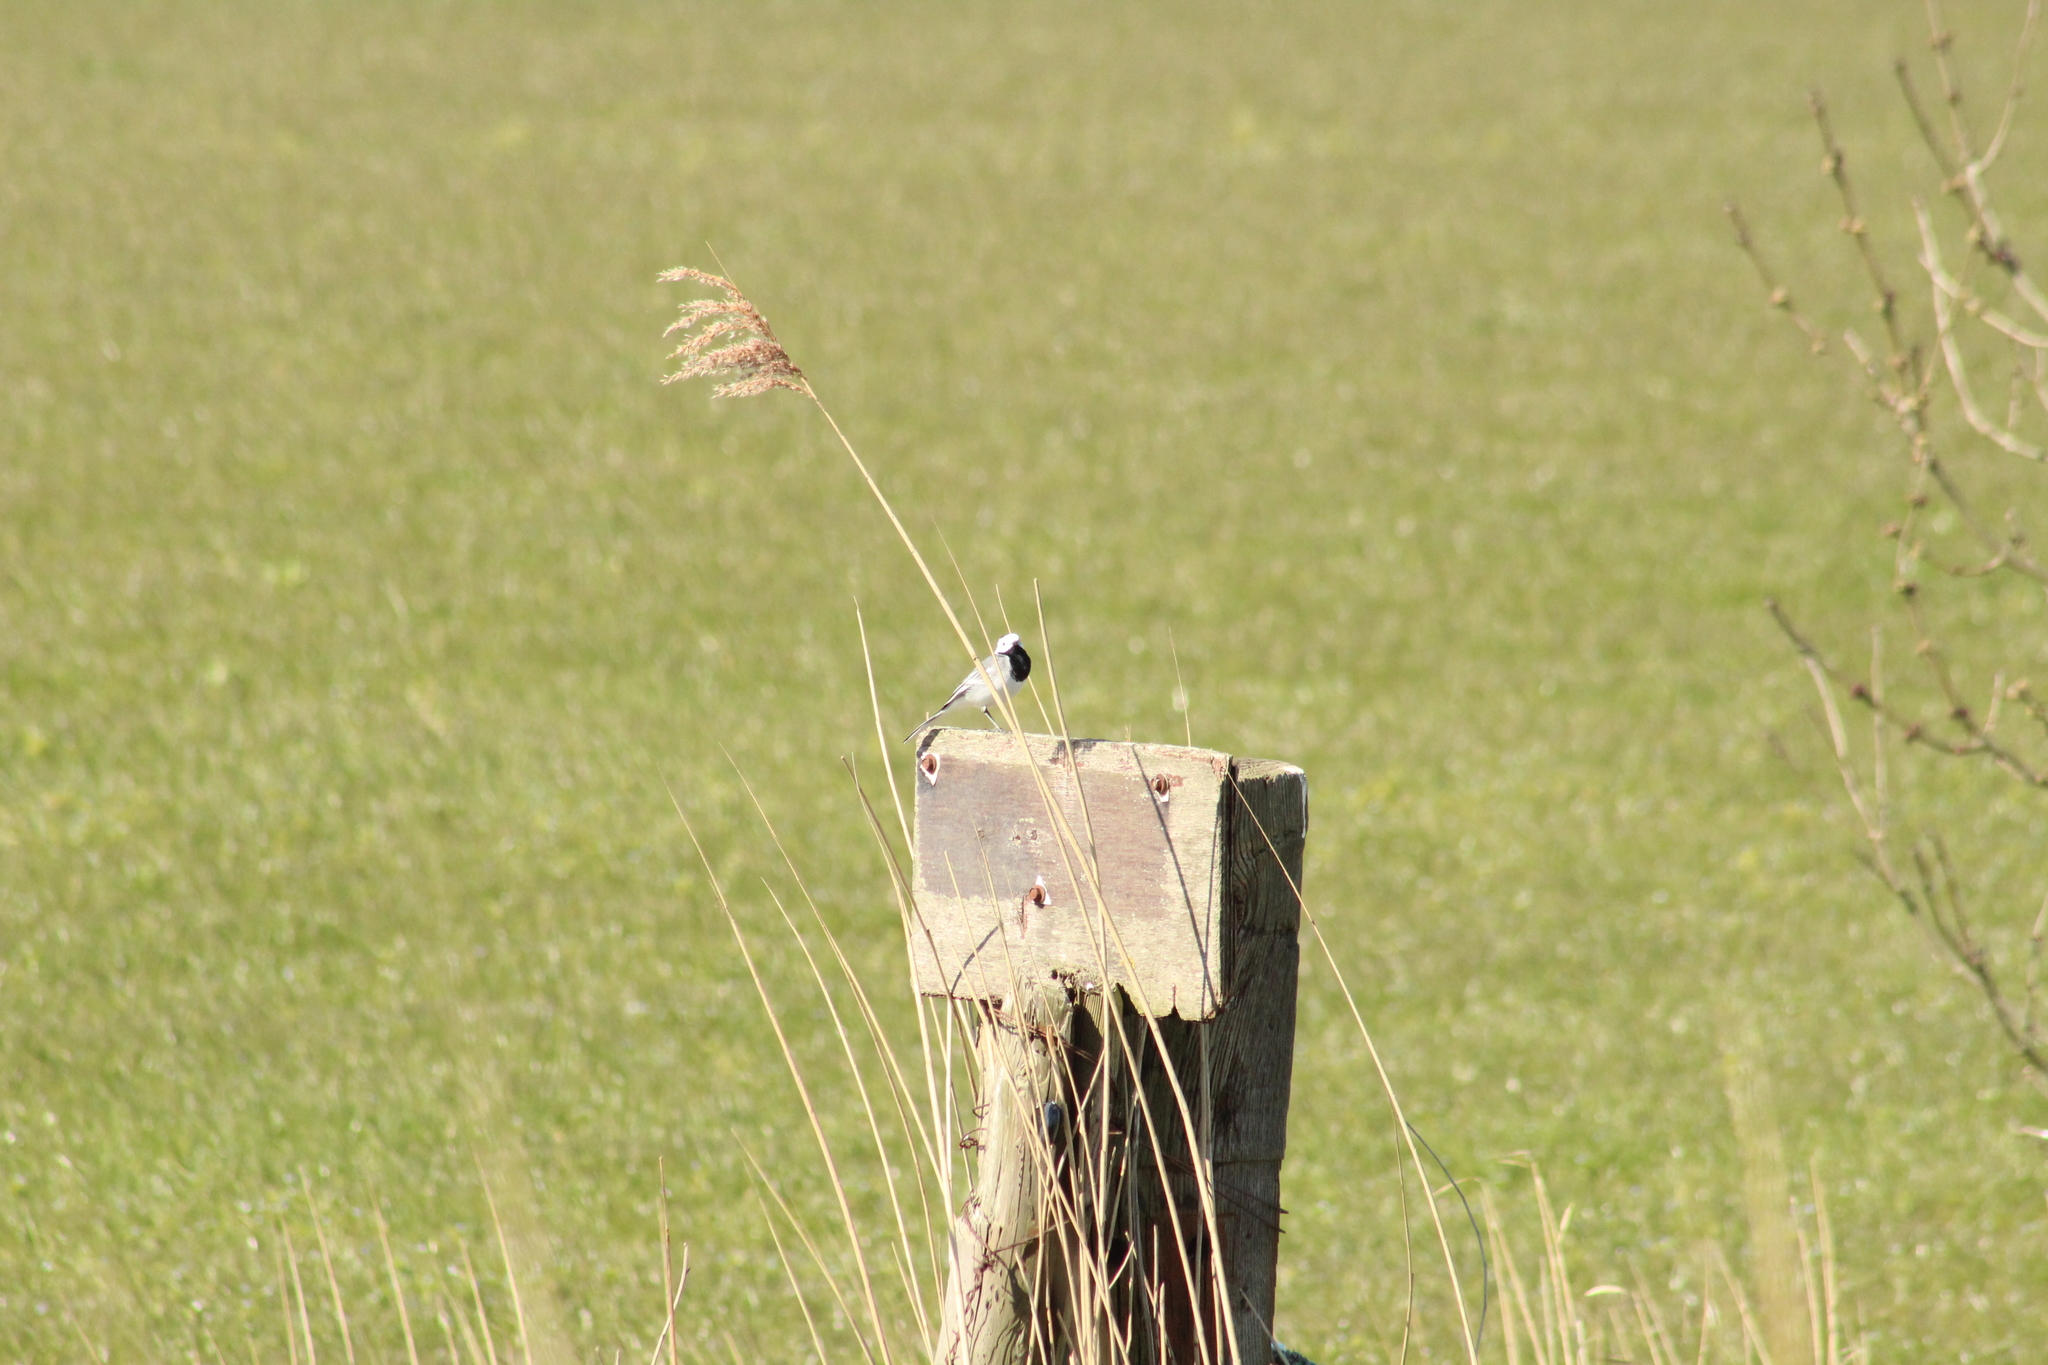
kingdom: Animalia
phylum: Chordata
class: Aves
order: Passeriformes
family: Motacillidae
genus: Motacilla
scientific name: Motacilla alba
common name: White wagtail
